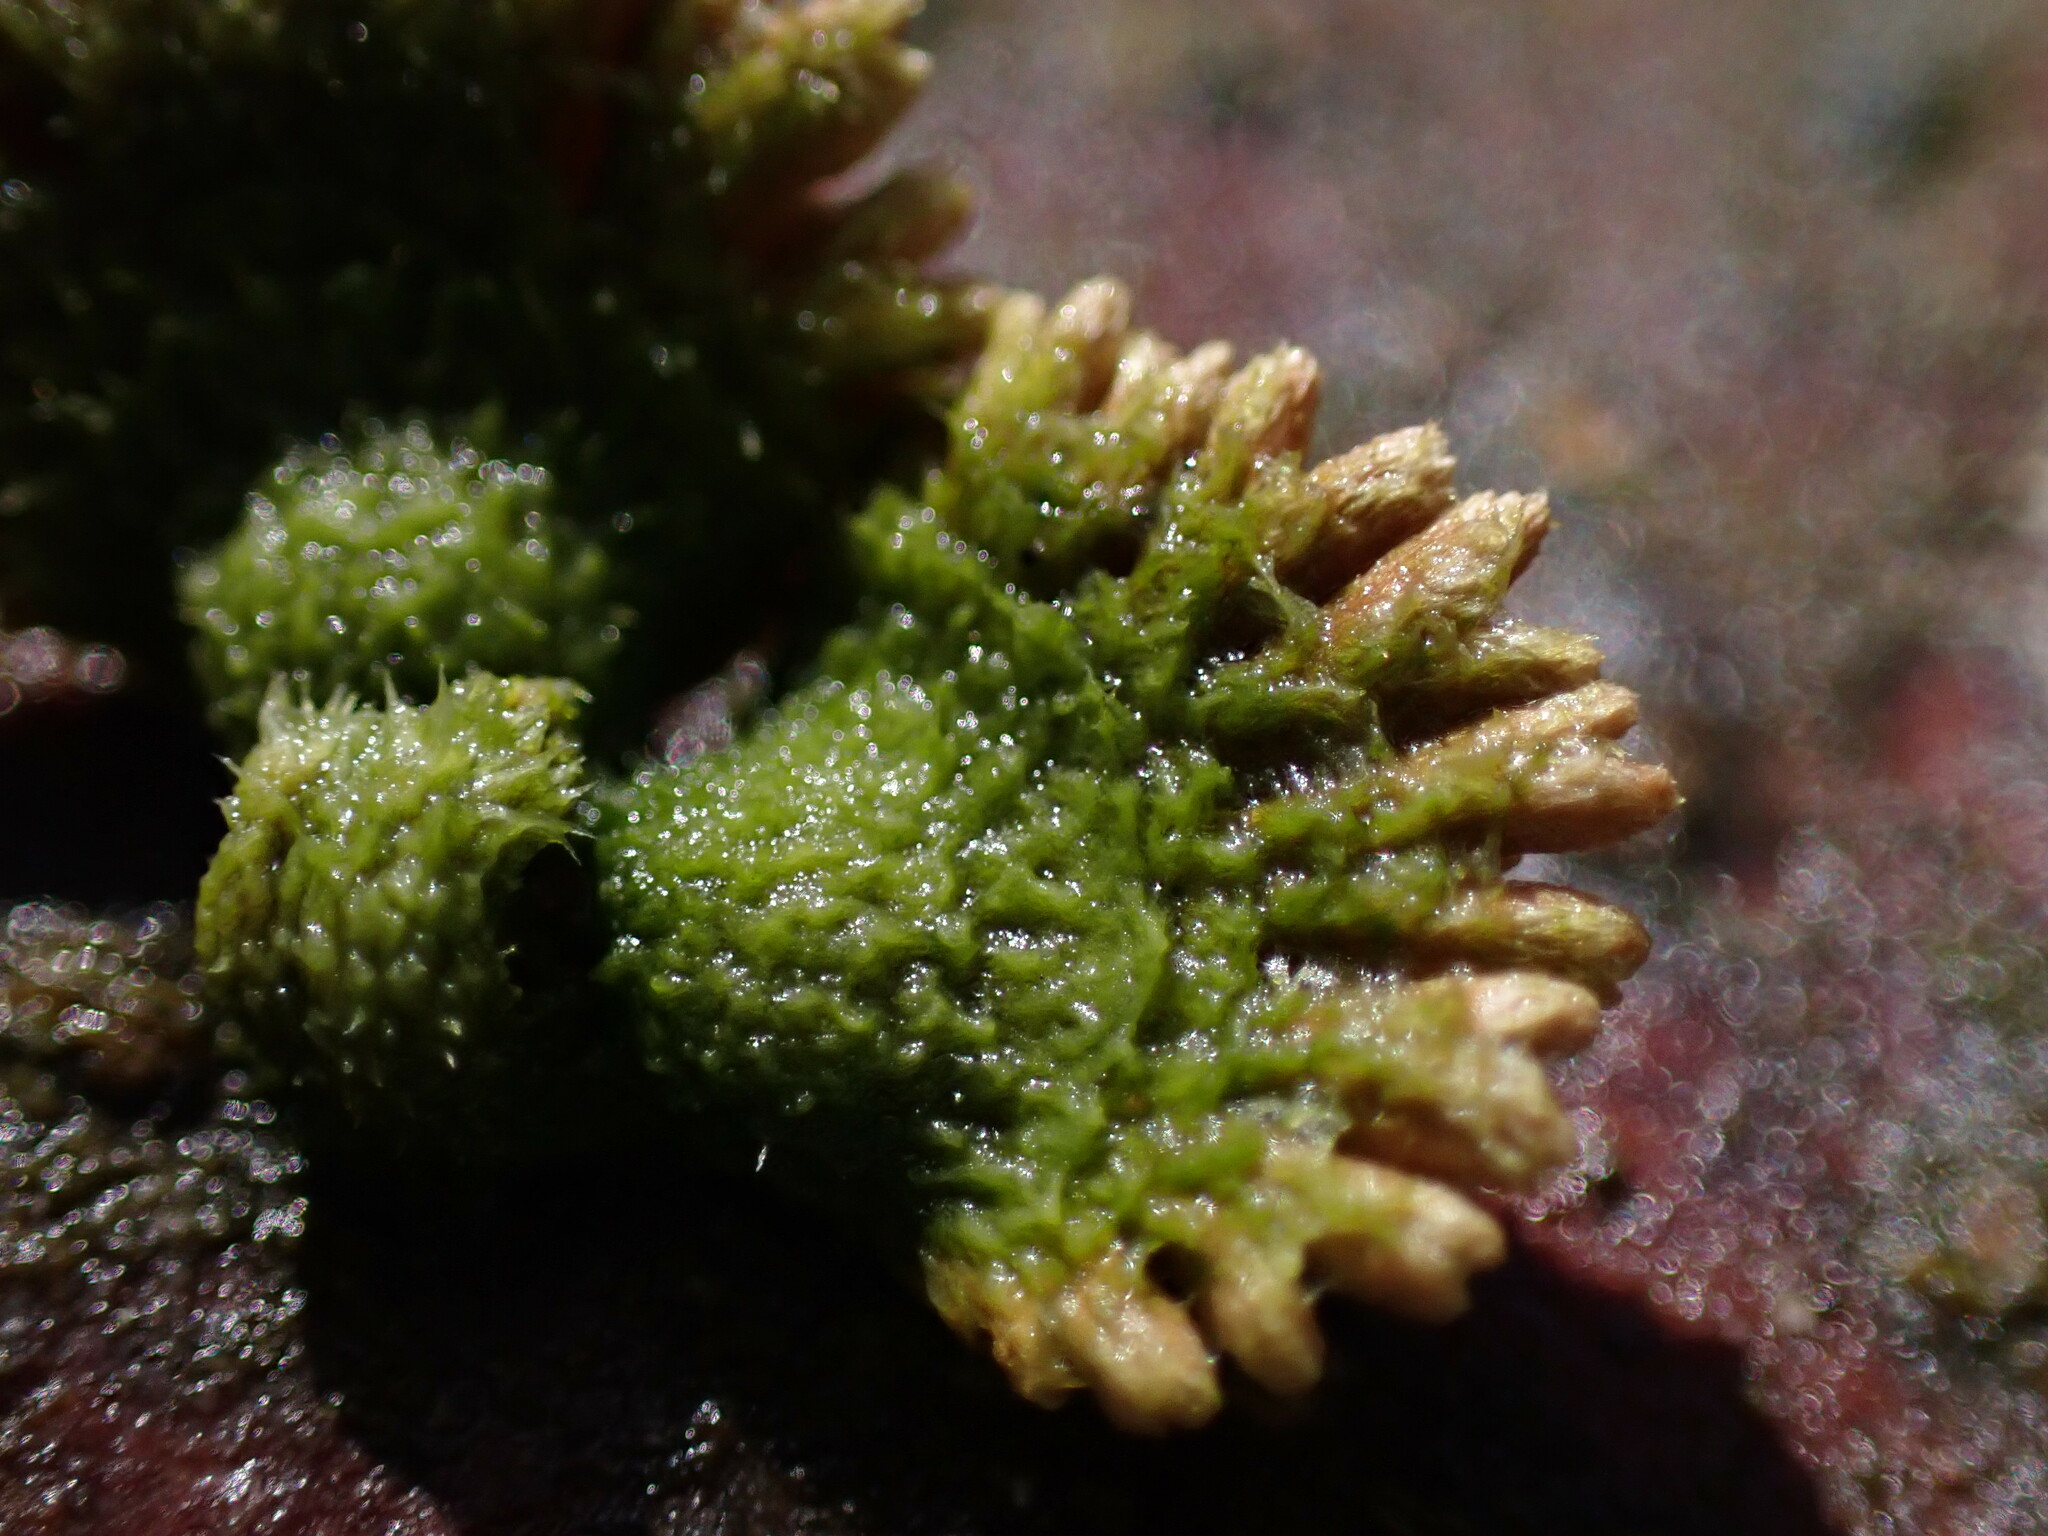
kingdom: Fungi
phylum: Basidiomycota
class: Agaricomycetes
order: Agaricales
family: Schizophyllaceae
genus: Schizophyllum
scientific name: Schizophyllum commune
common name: Common porecrust
